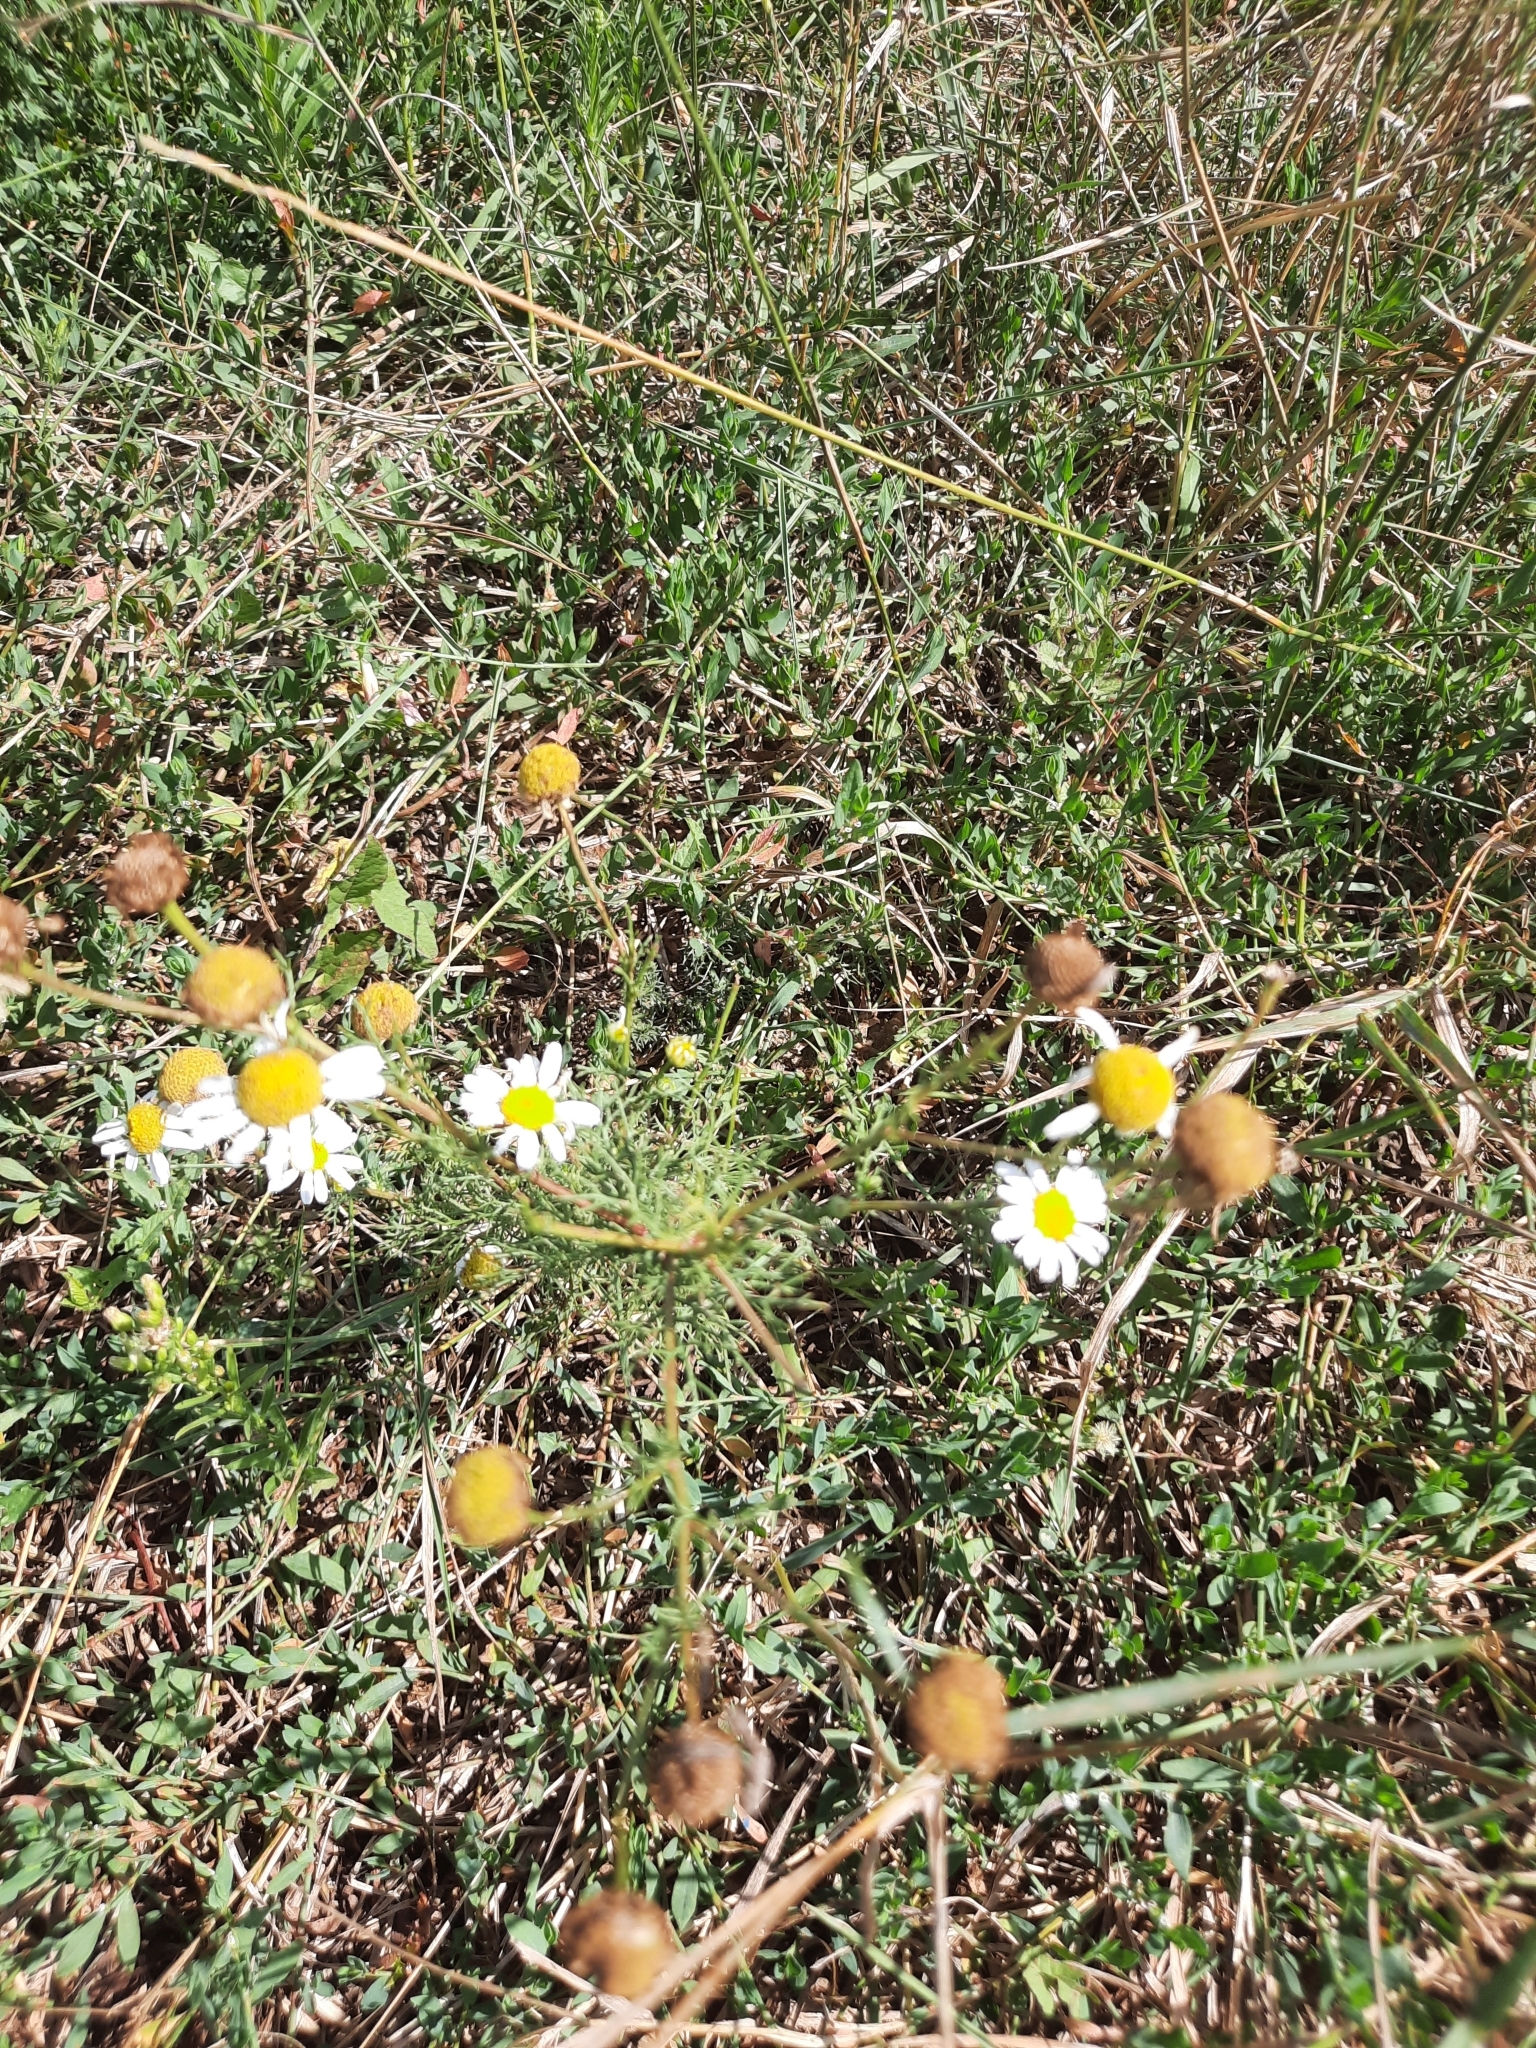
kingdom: Plantae
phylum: Tracheophyta
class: Magnoliopsida
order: Asterales
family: Asteraceae
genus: Tripleurospermum
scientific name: Tripleurospermum inodorum
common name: Scentless mayweed
